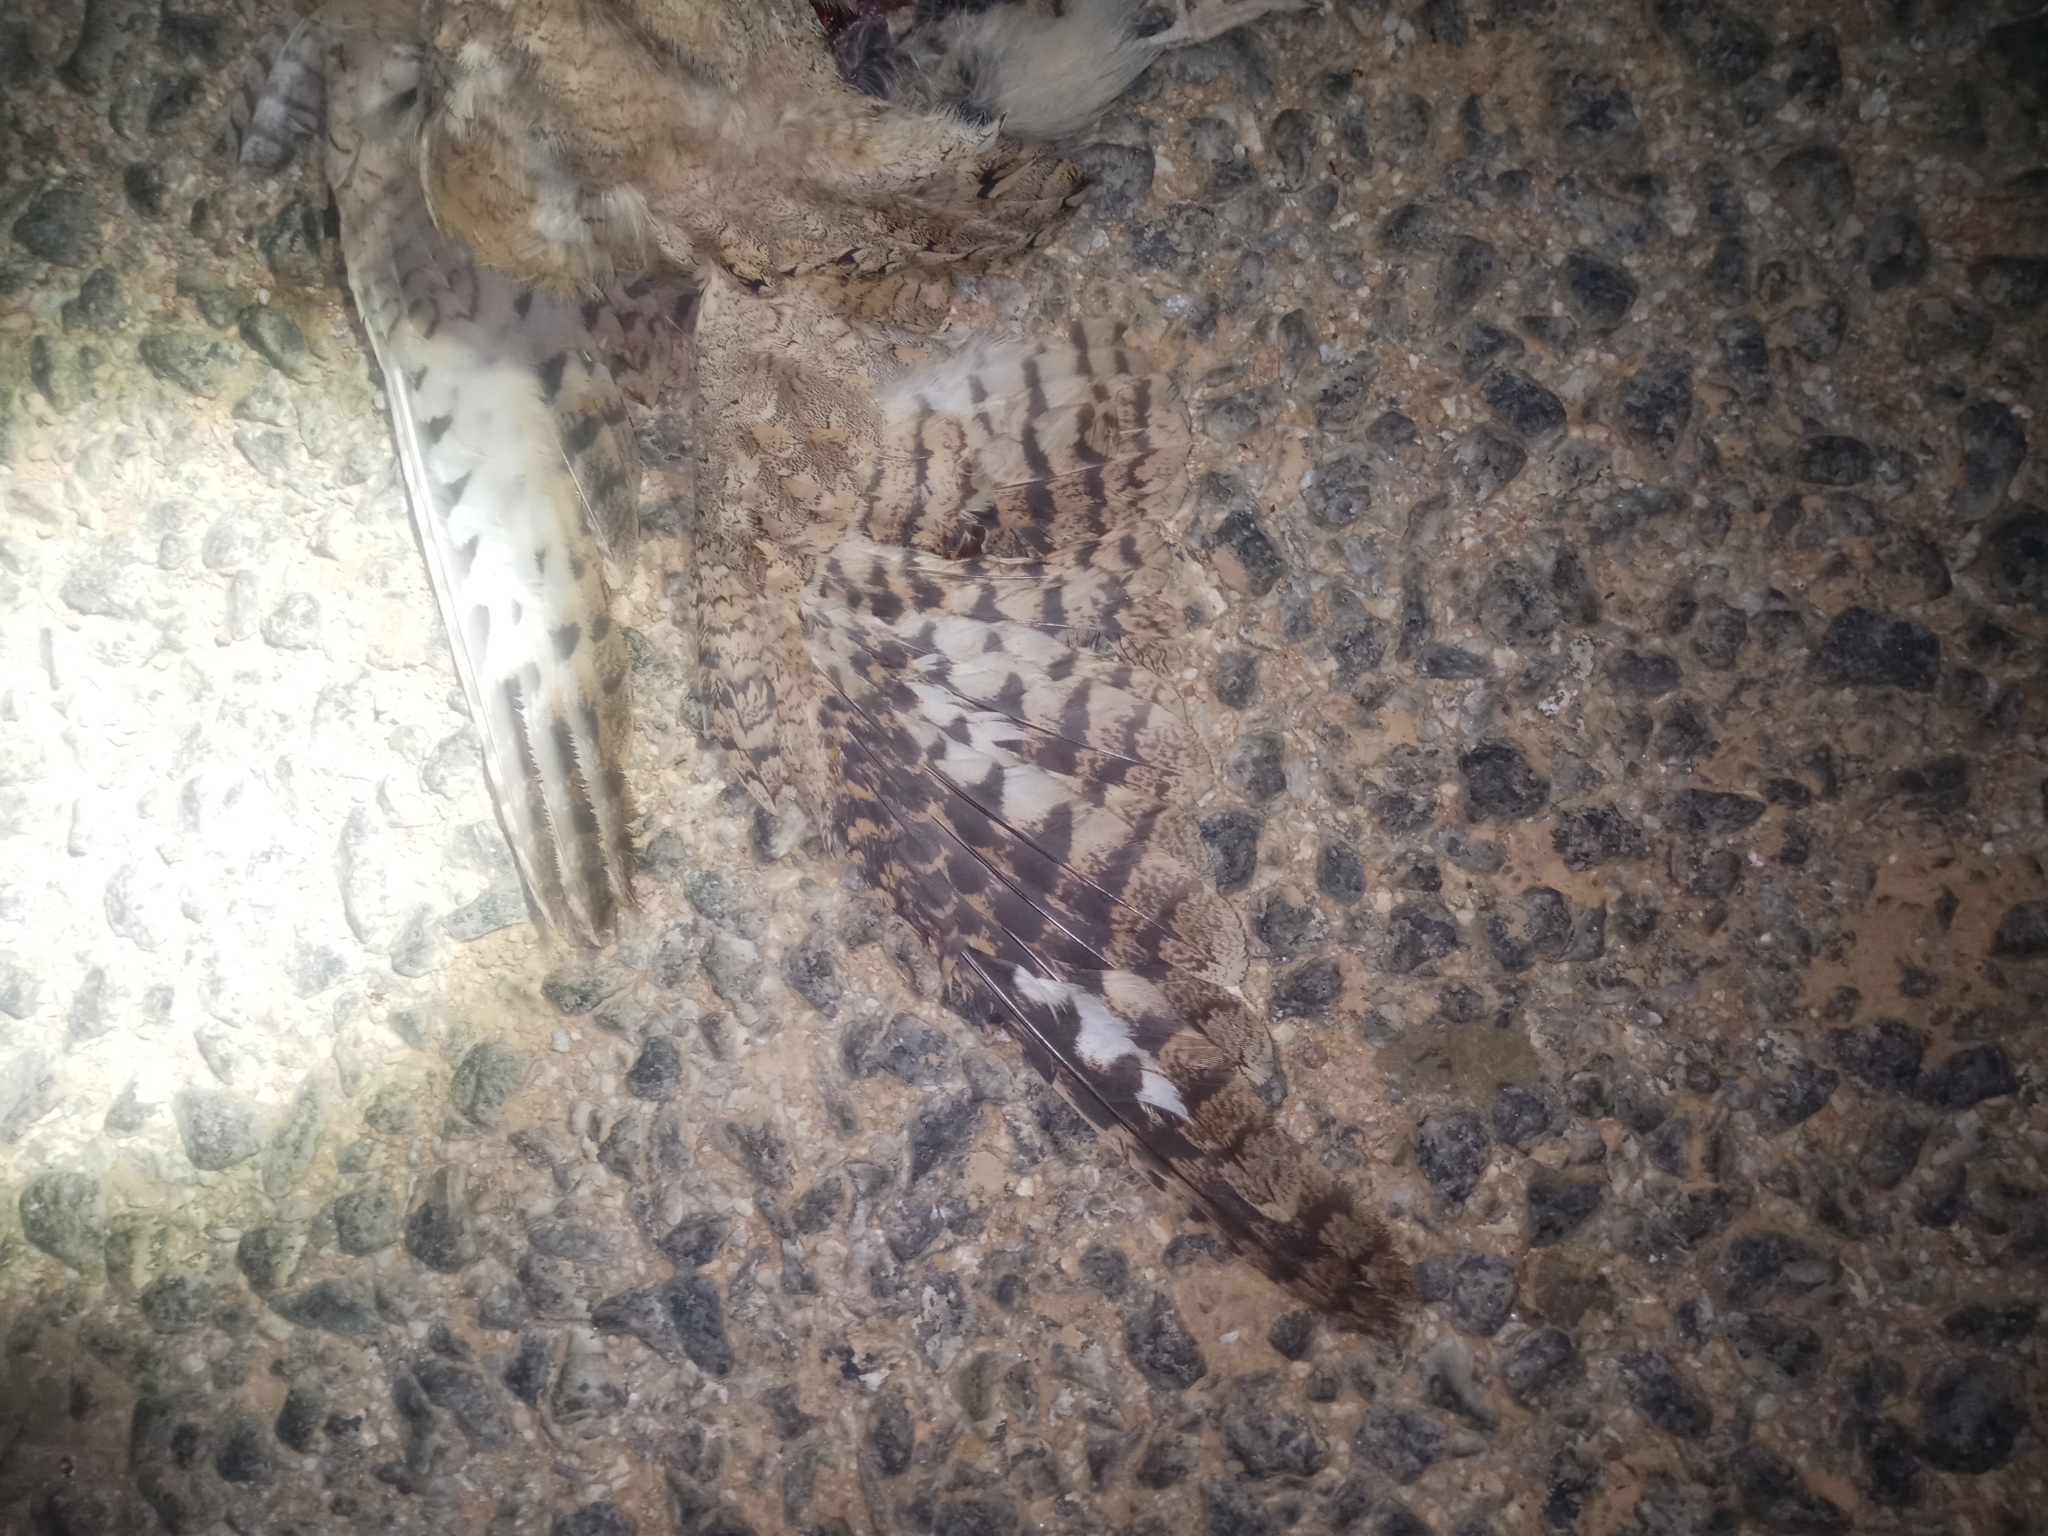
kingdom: Animalia
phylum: Chordata
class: Aves
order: Caprimulgiformes
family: Caprimulgidae
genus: Caprimulgus
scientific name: Caprimulgus aegyptius
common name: Egyptian nightjar
